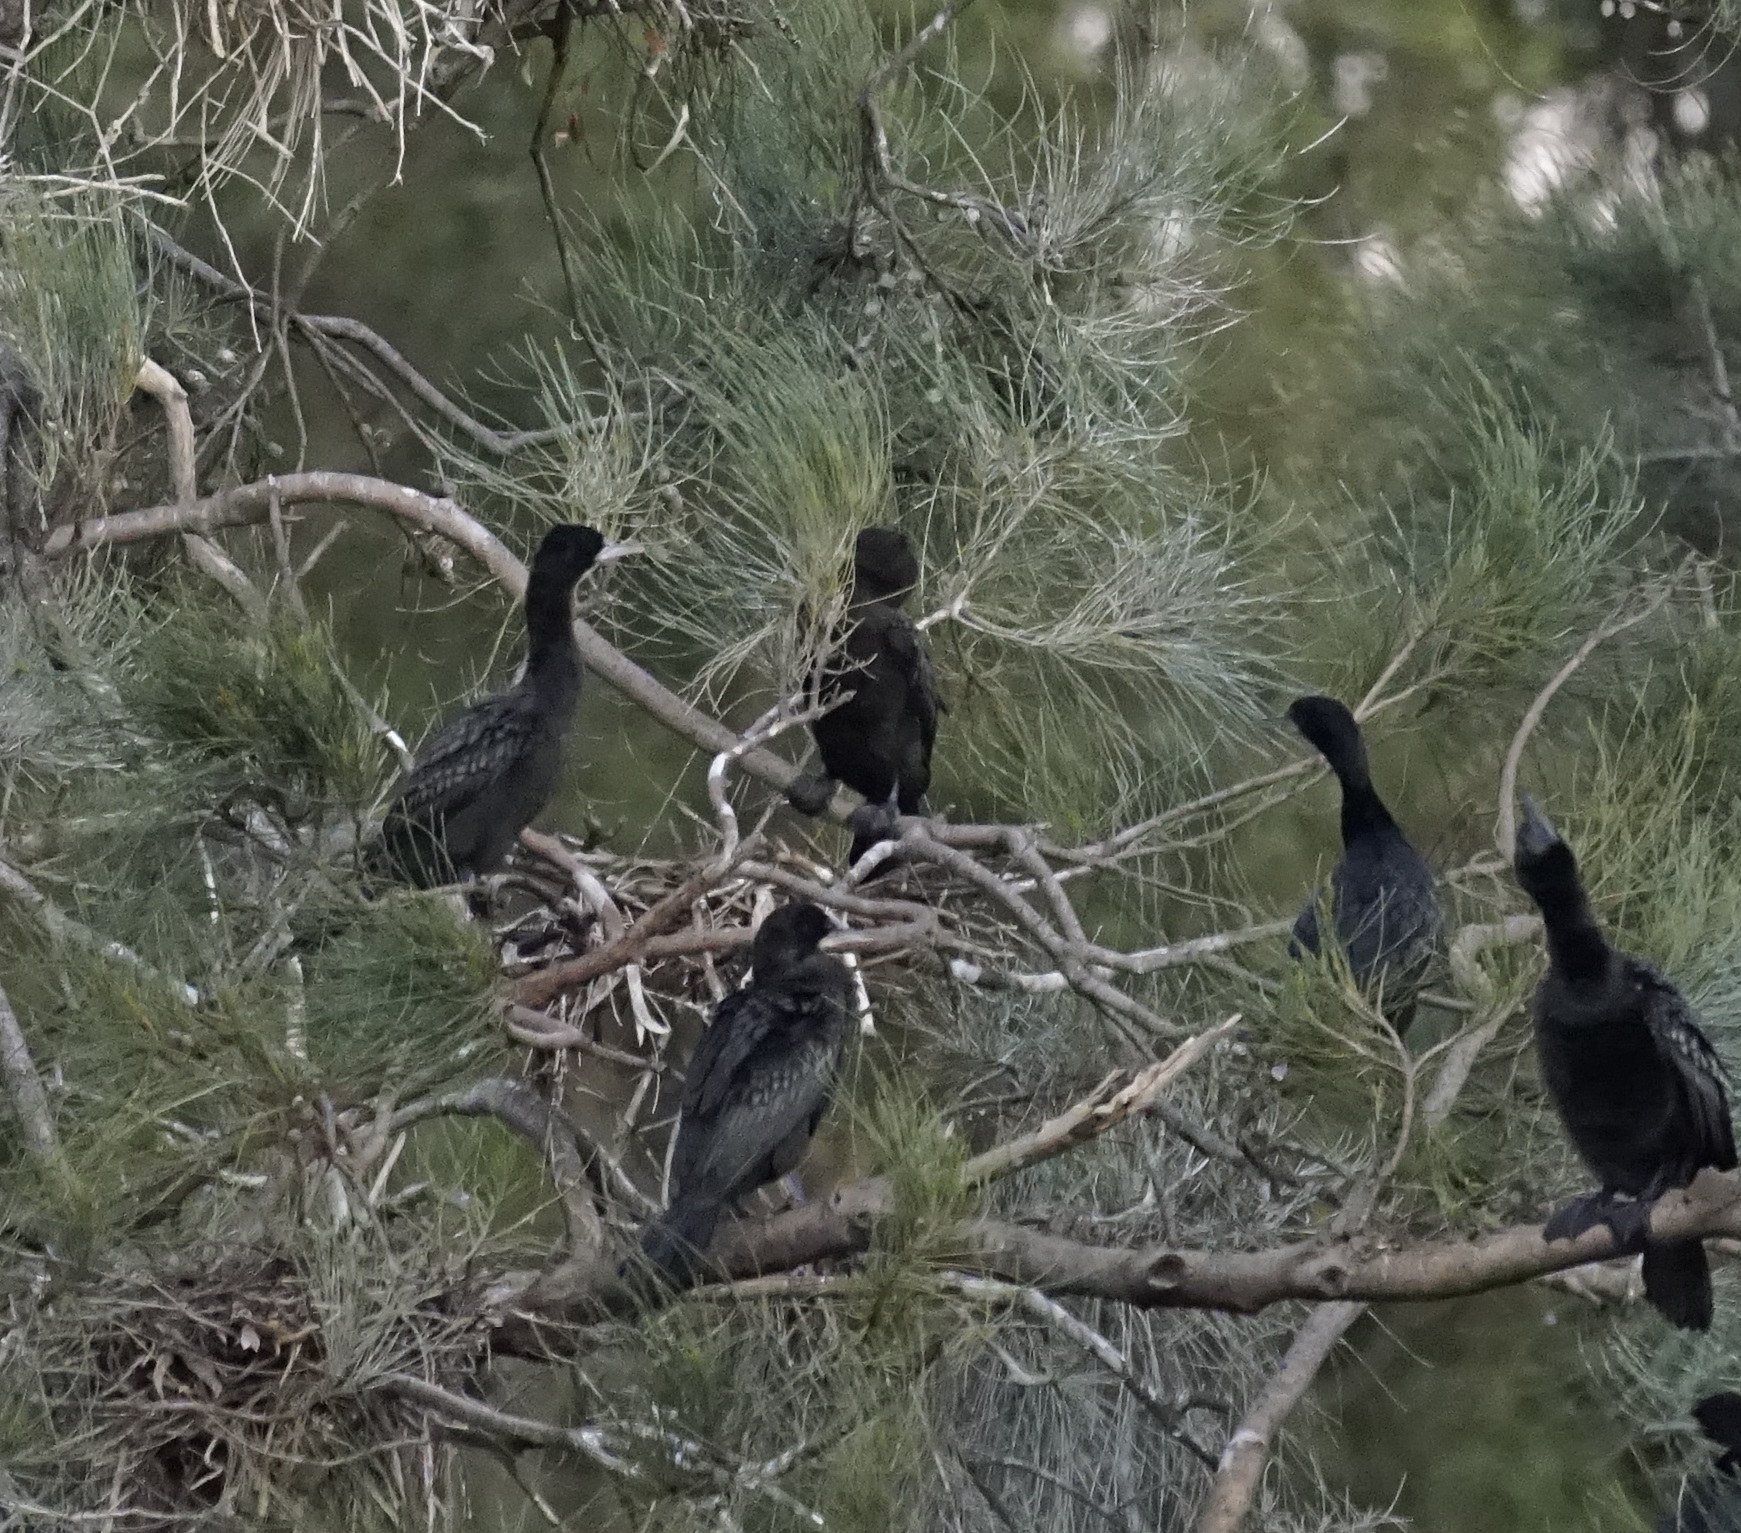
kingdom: Animalia
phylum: Chordata
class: Aves
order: Suliformes
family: Phalacrocoracidae
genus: Phalacrocorax
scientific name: Phalacrocorax sulcirostris
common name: Little black cormorant
